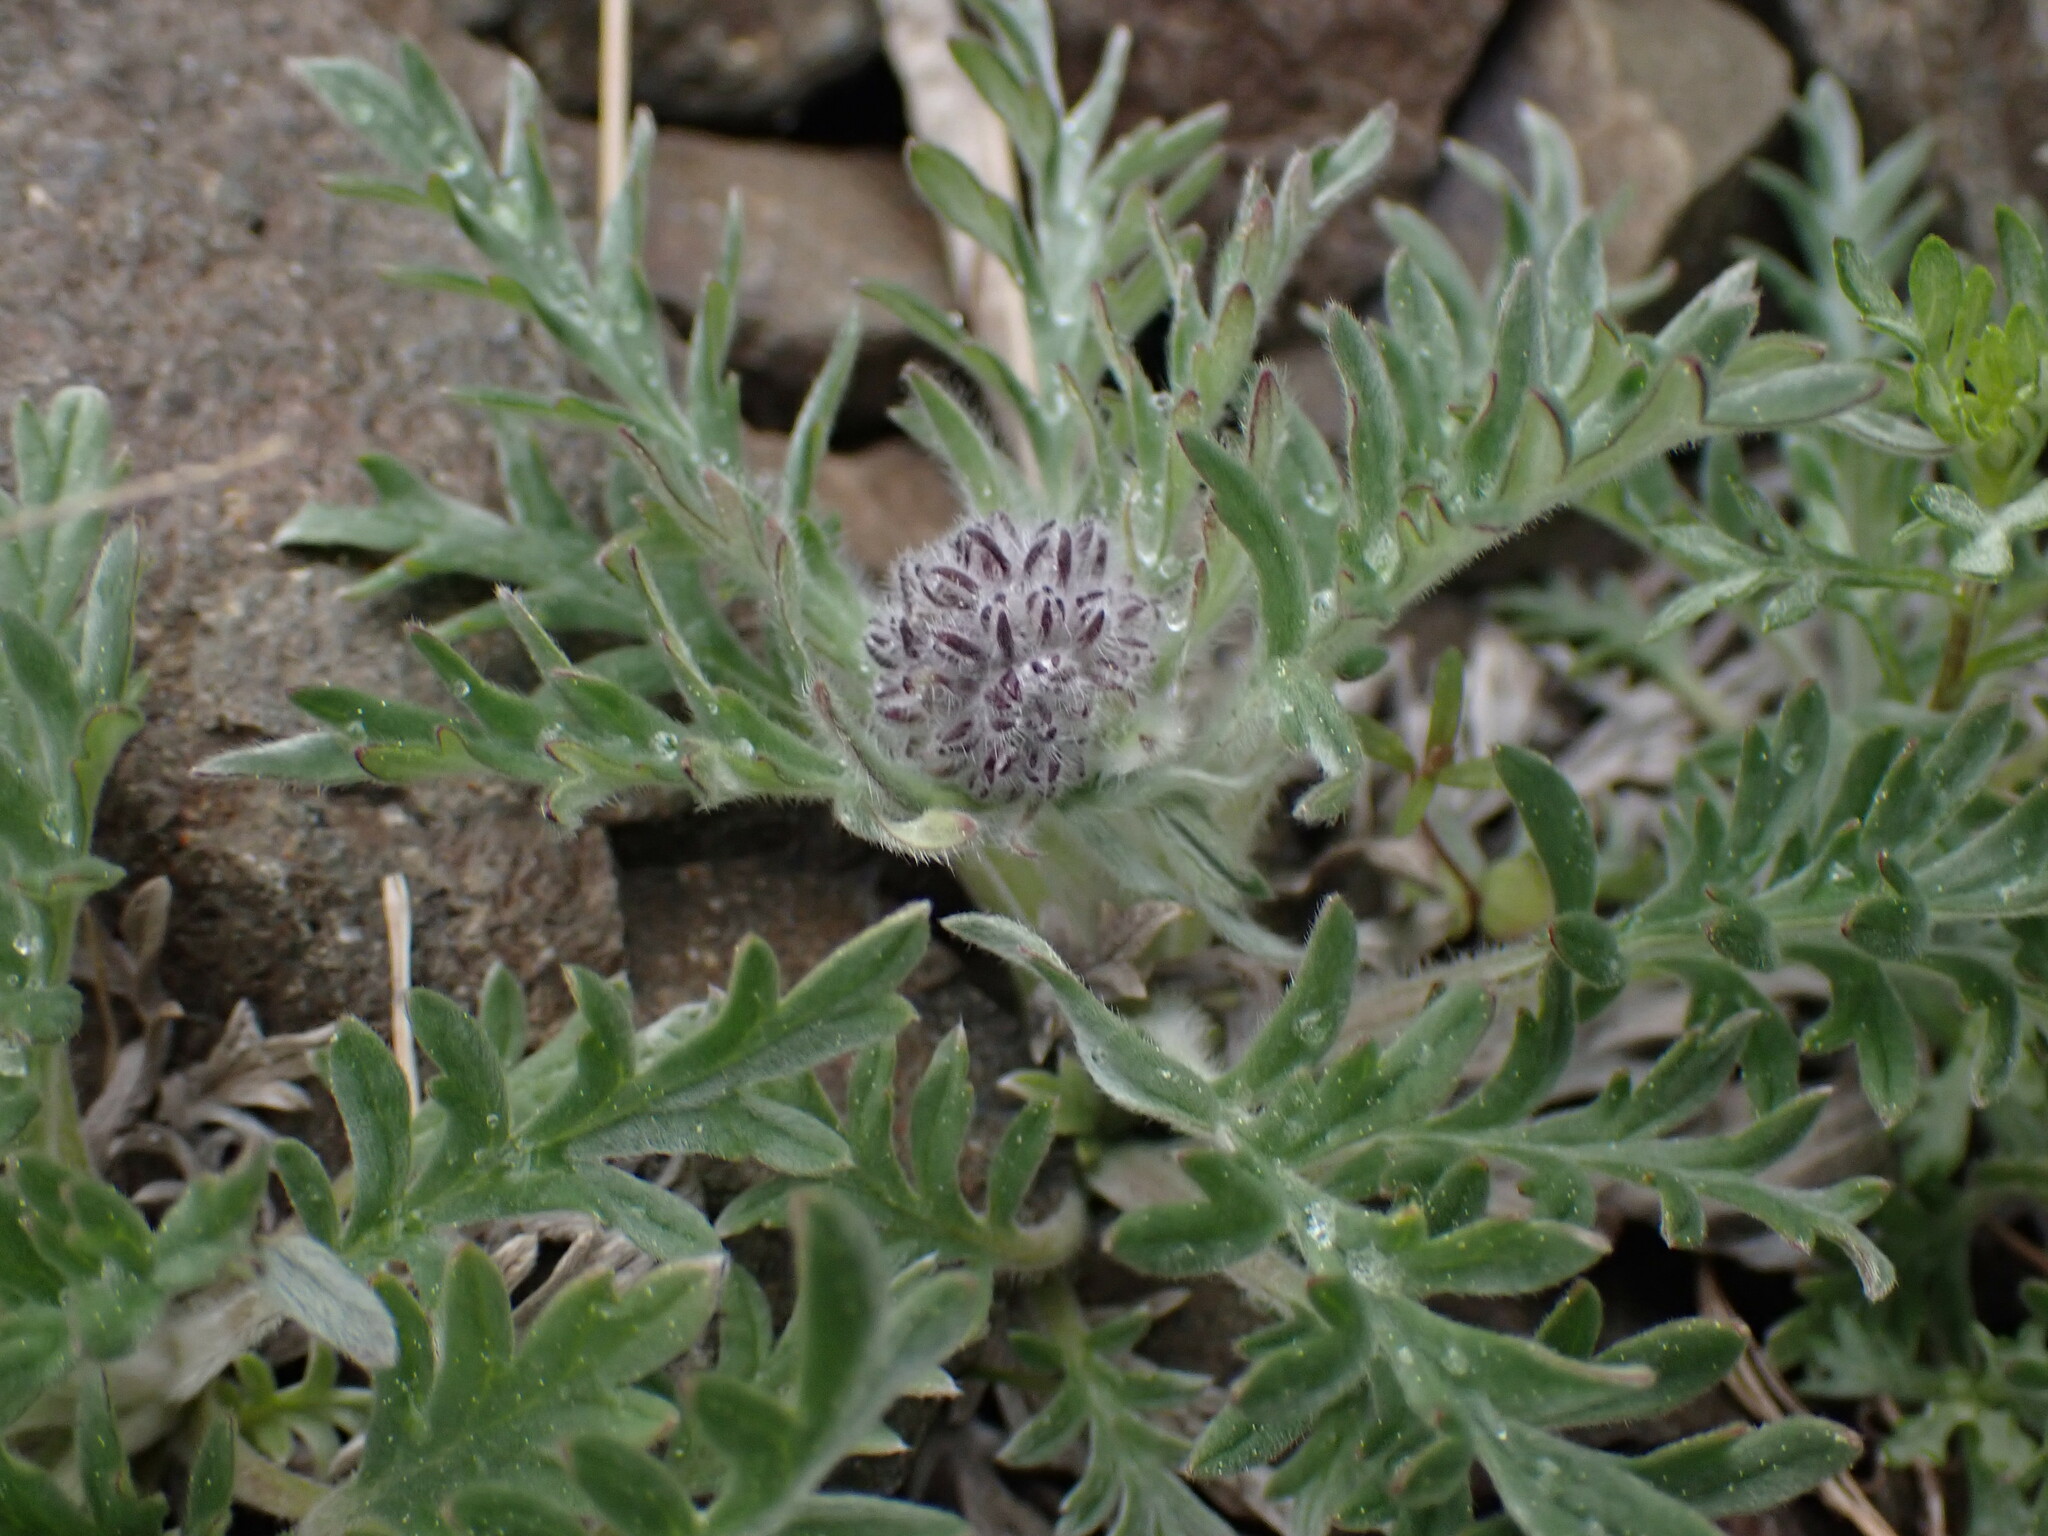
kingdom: Plantae
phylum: Tracheophyta
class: Magnoliopsida
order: Boraginales
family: Hydrophyllaceae
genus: Phacelia
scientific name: Phacelia sericea
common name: Silky phacelia
